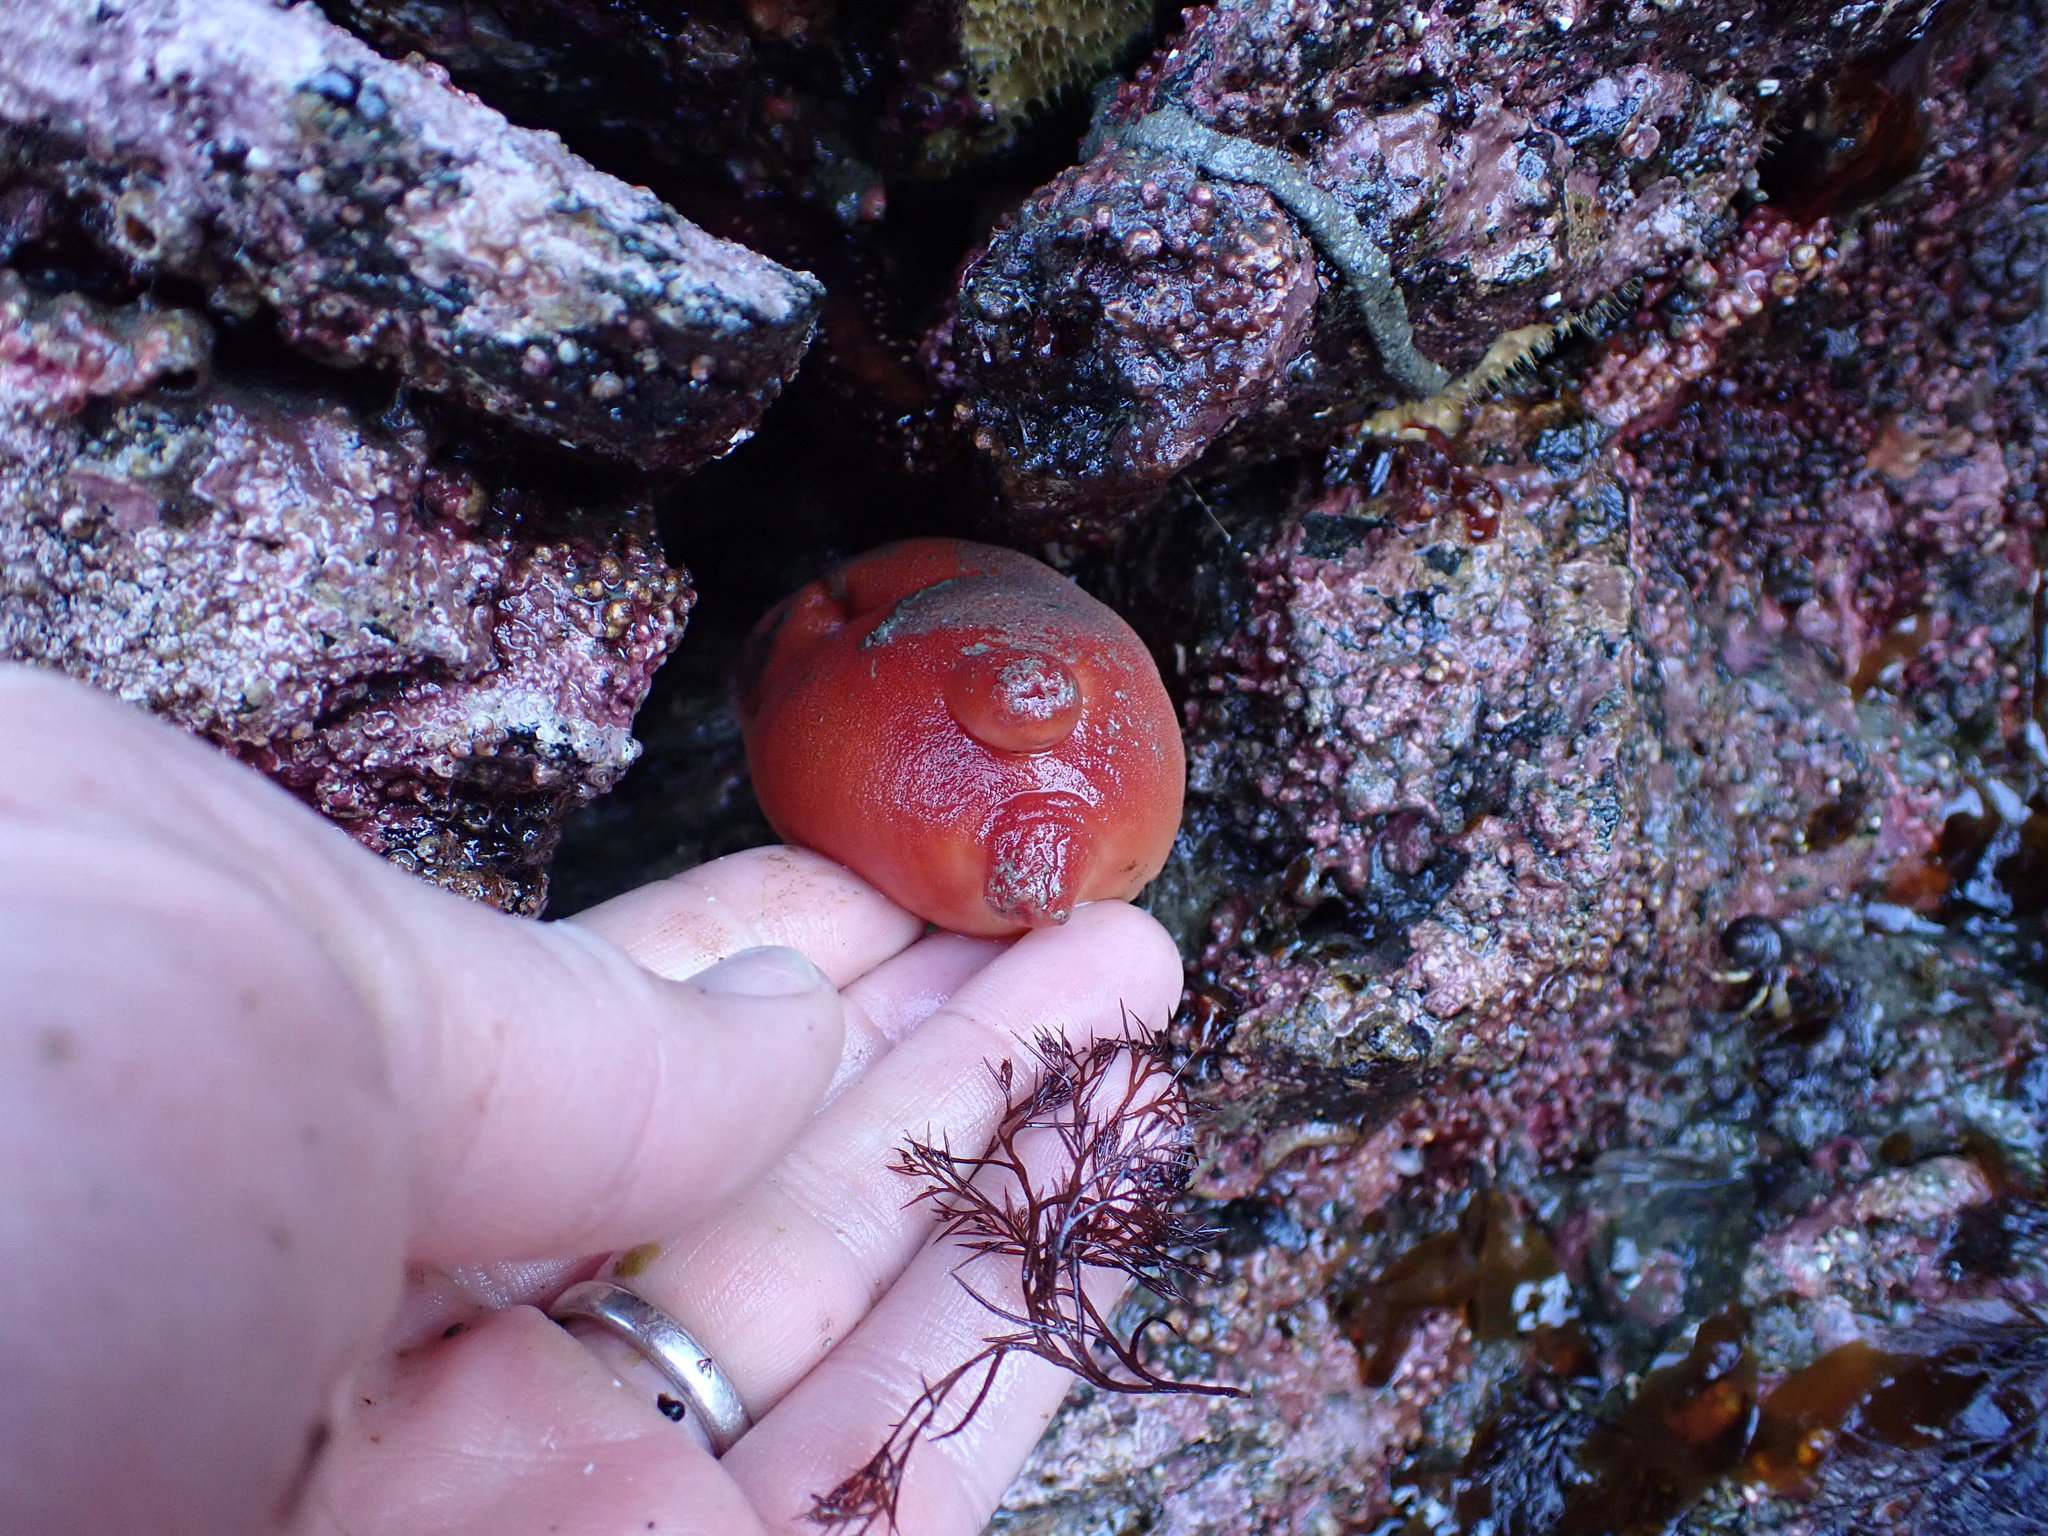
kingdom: Animalia
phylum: Chordata
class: Ascidiacea
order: Stolidobranchia
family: Pyuridae
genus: Halocynthia
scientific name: Halocynthia aurantium
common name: Sea peach
